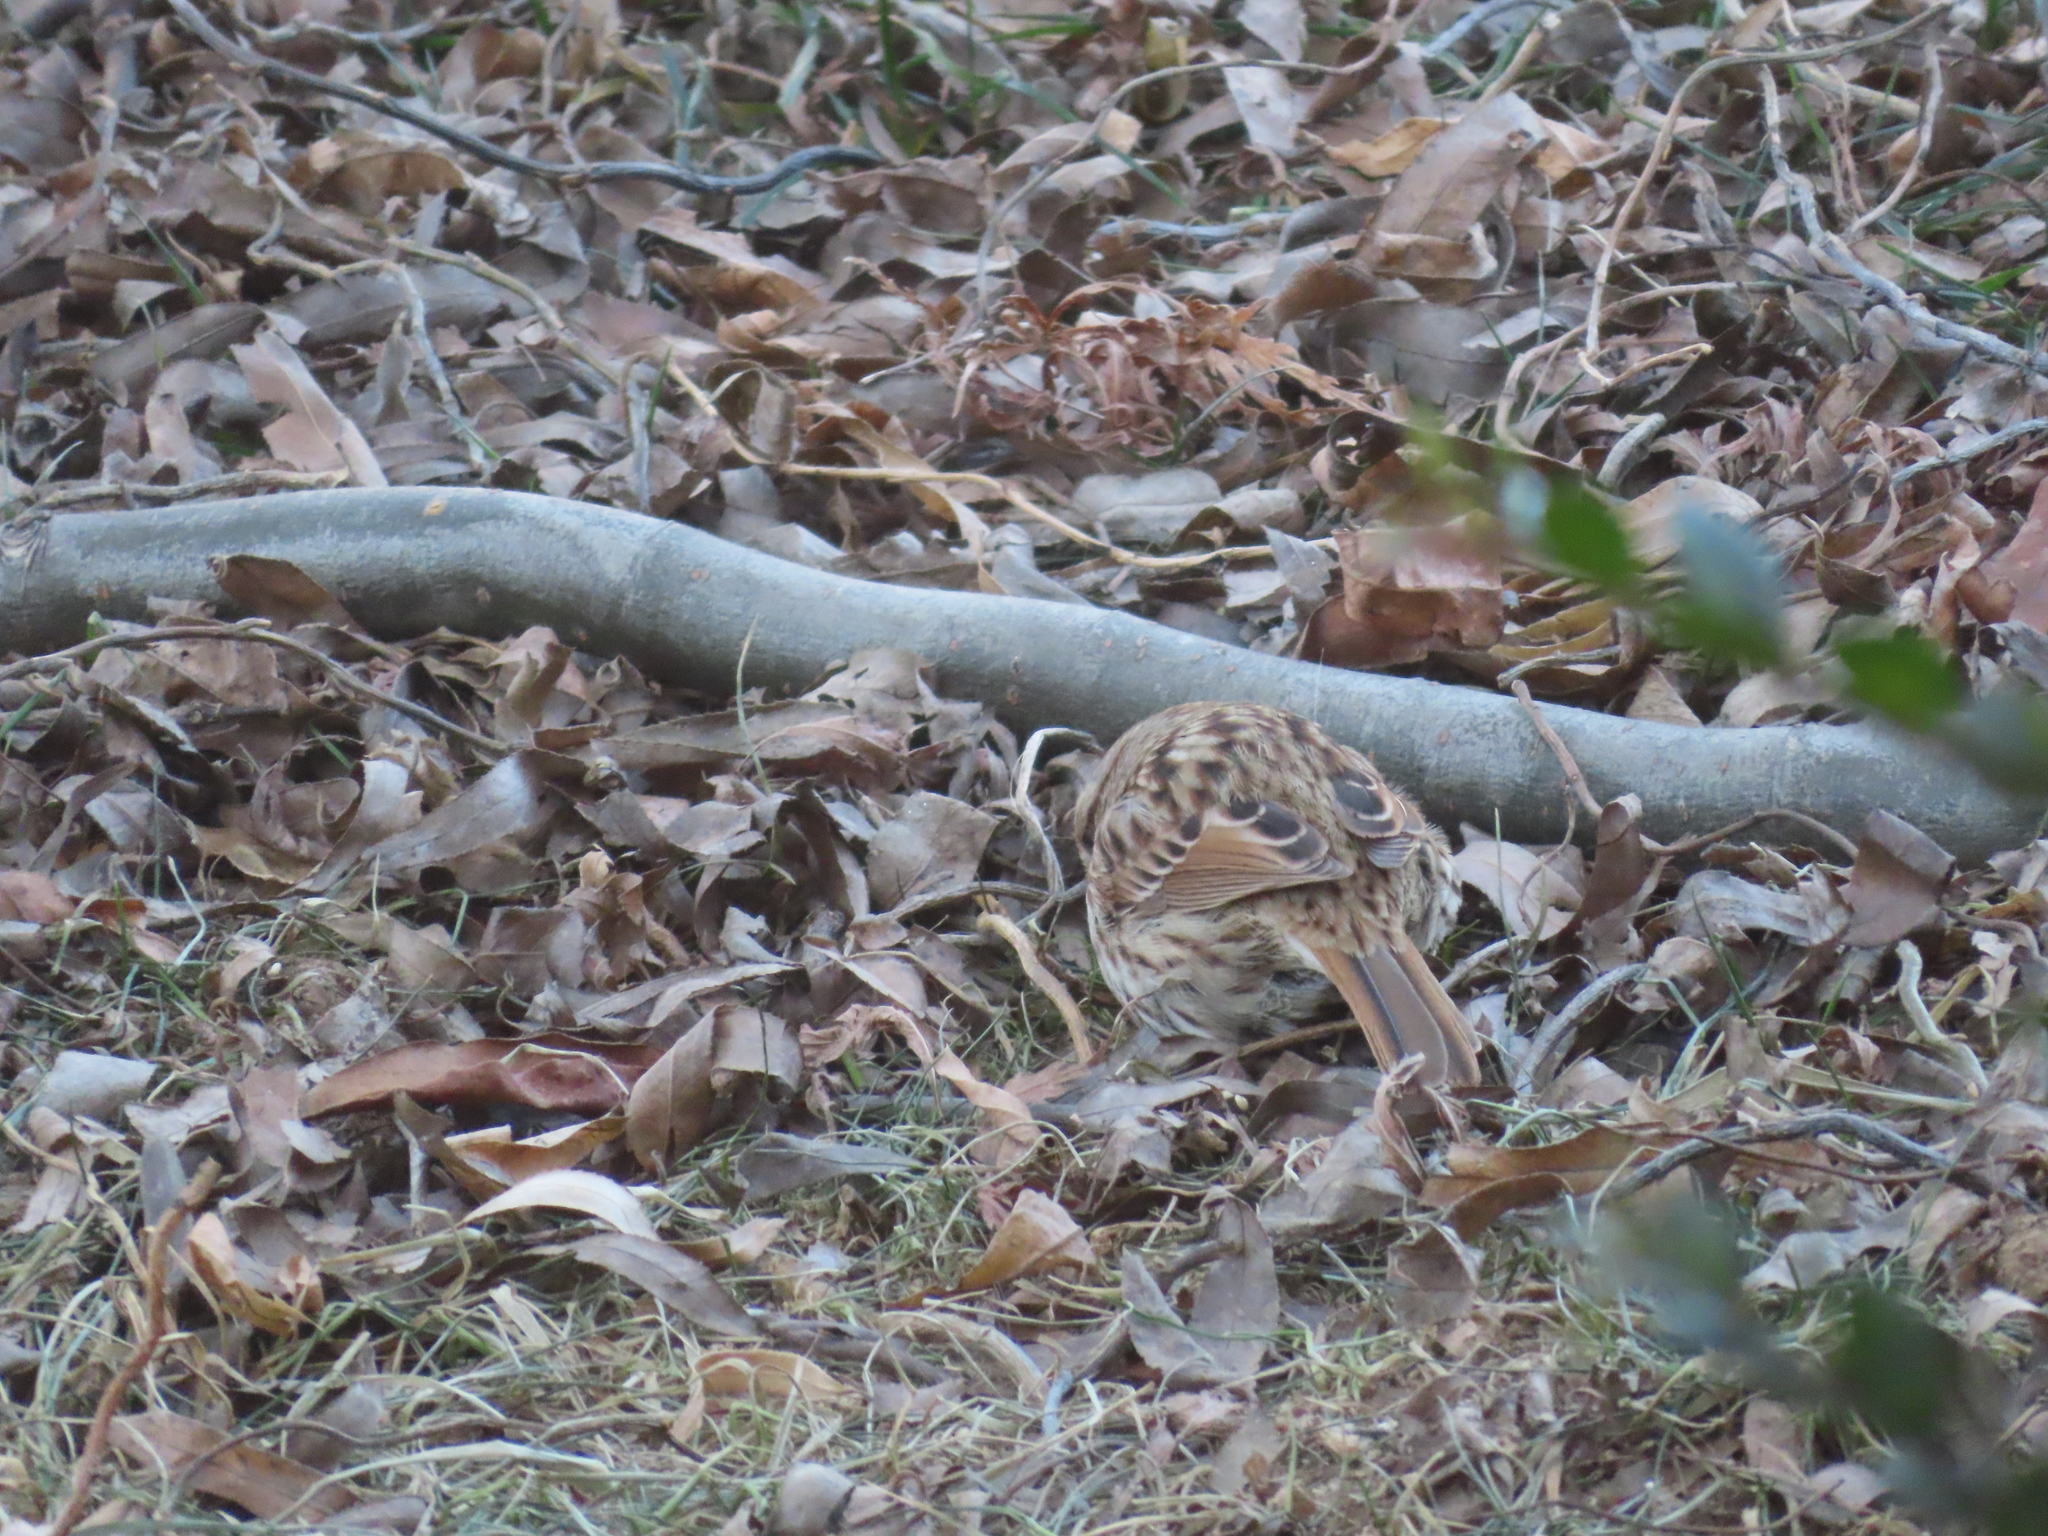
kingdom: Animalia
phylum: Chordata
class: Aves
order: Passeriformes
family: Passerellidae
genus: Melospiza
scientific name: Melospiza melodia
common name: Song sparrow
